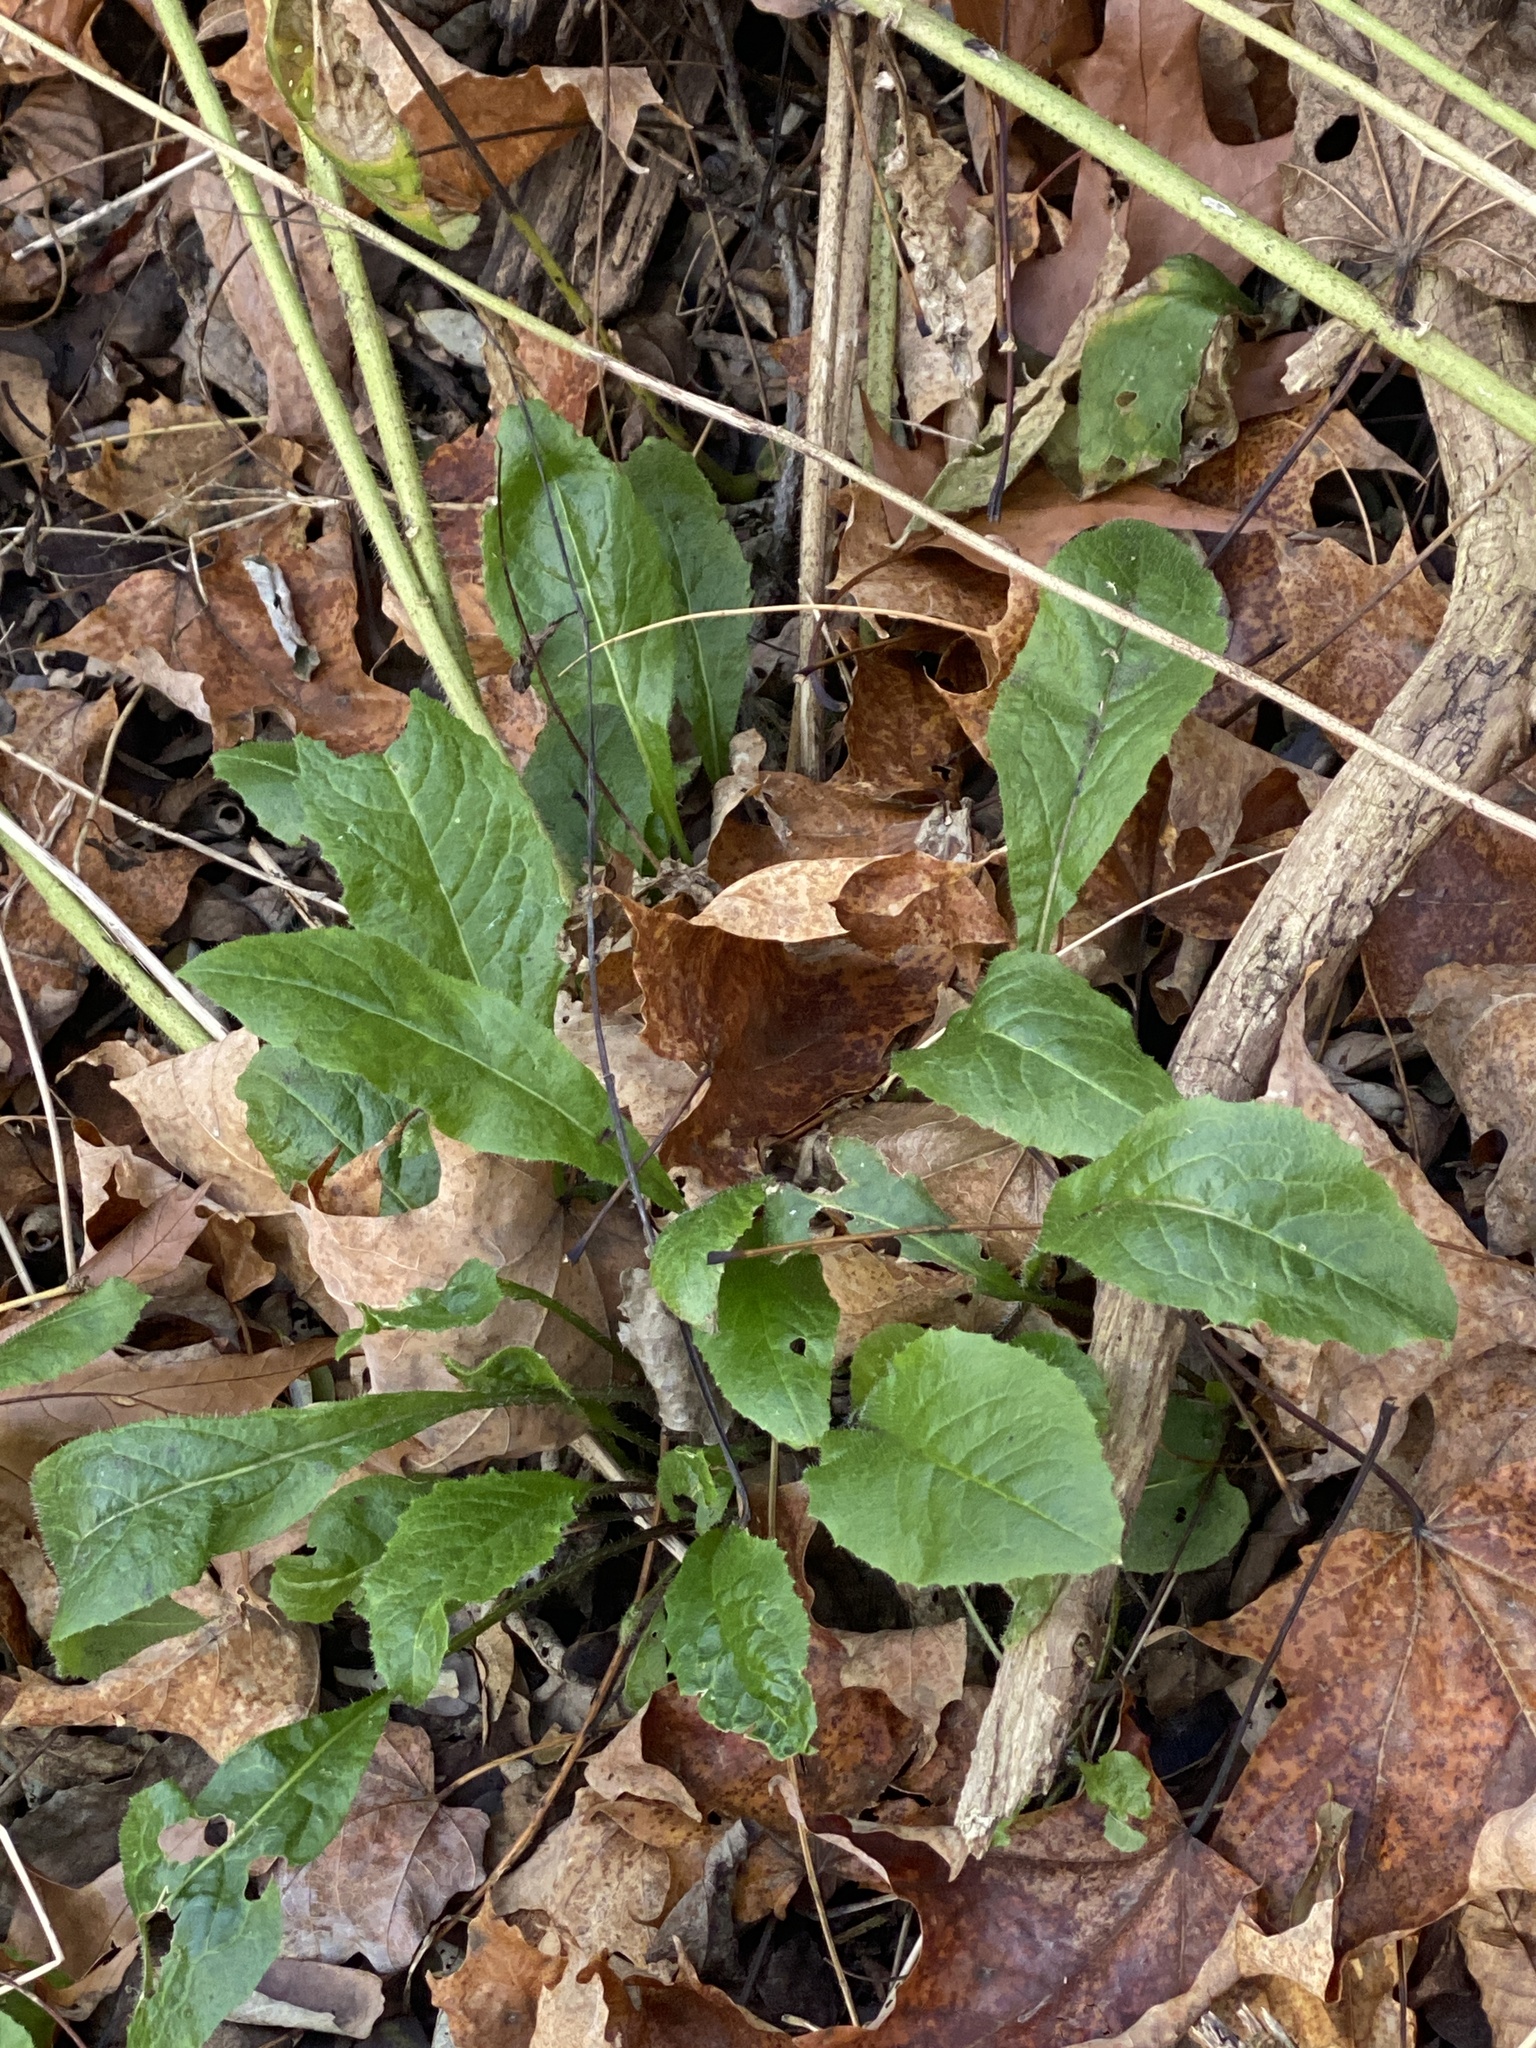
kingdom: Plantae
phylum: Tracheophyta
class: Magnoliopsida
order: Brassicales
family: Brassicaceae
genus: Hesperis
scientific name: Hesperis matronalis
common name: Dame's-violet
